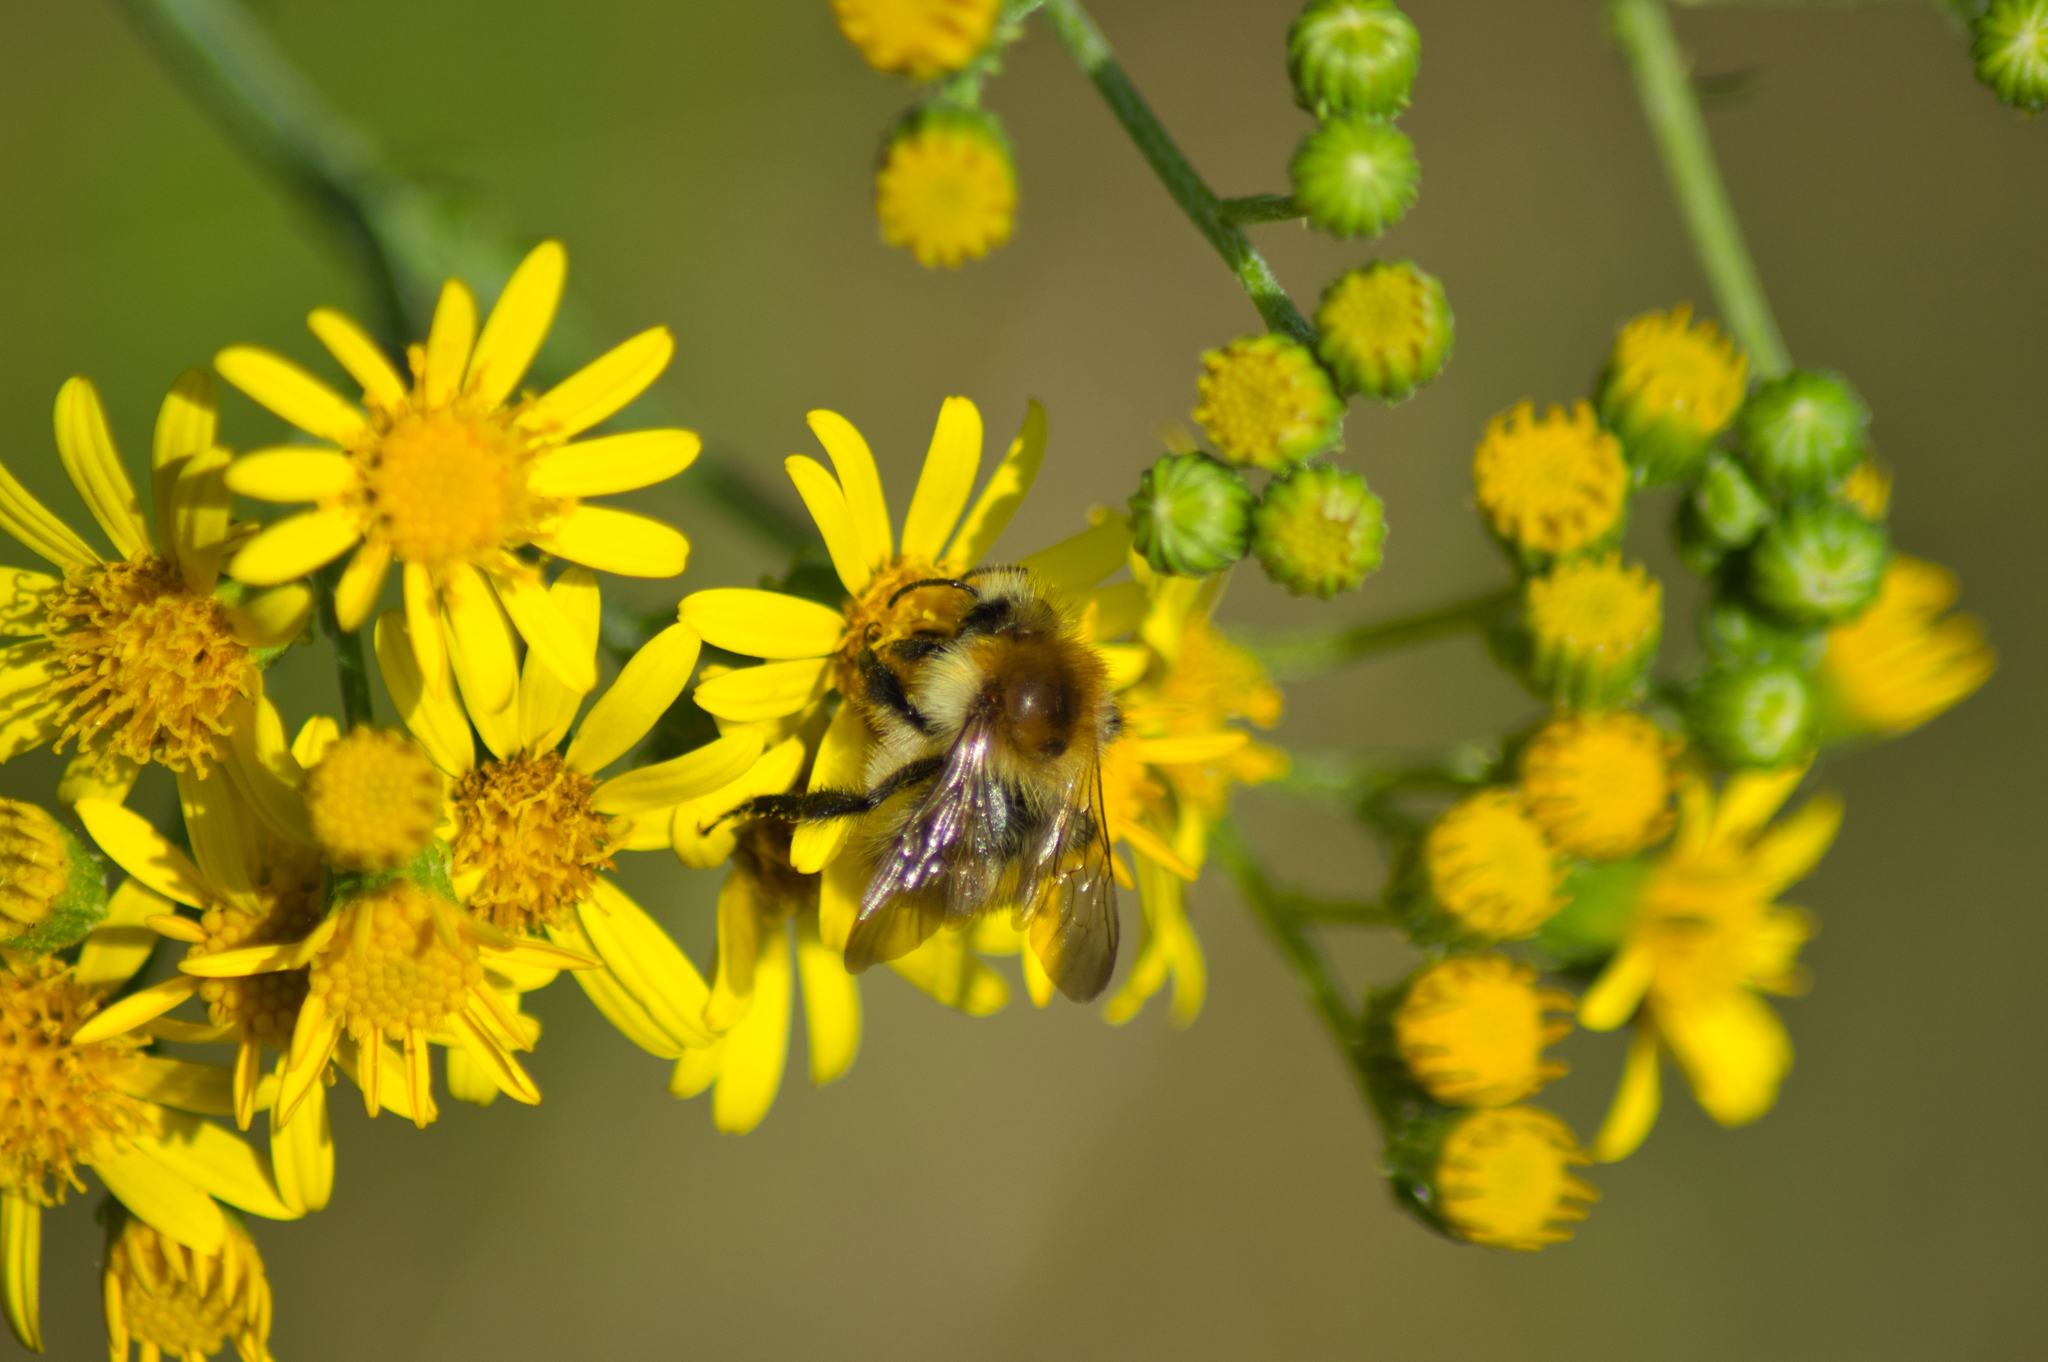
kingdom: Animalia
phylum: Arthropoda
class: Insecta
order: Hymenoptera
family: Apidae
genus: Bombus
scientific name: Bombus pascuorum
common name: Common carder bee
